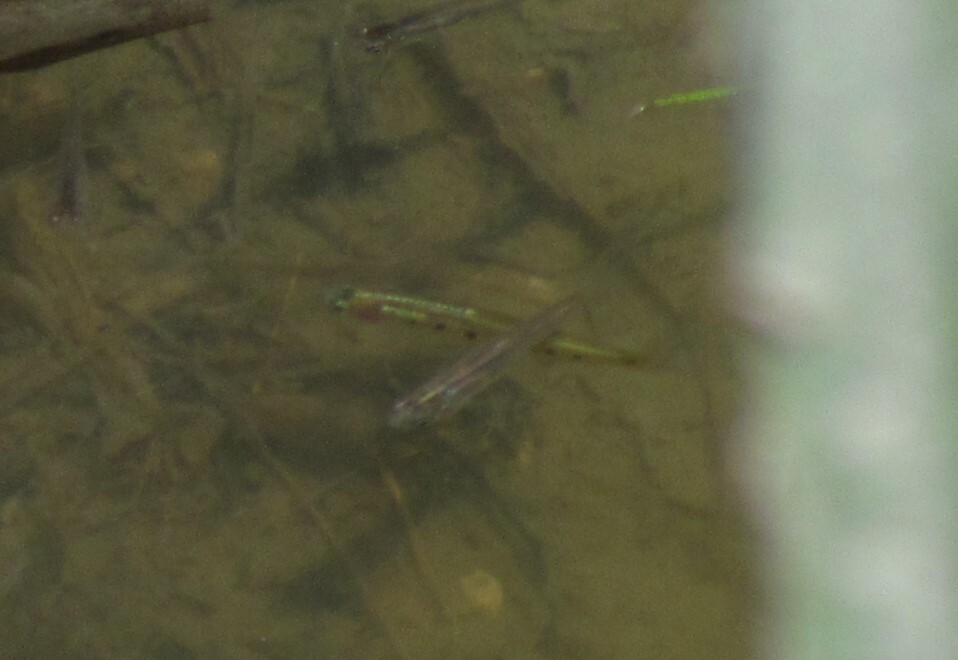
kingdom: Animalia
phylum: Chordata
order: Cyprinodontiformes
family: Poeciliidae
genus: Cnesterodon
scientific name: Cnesterodon decemmaculatus
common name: Ten spotted live-bearer
